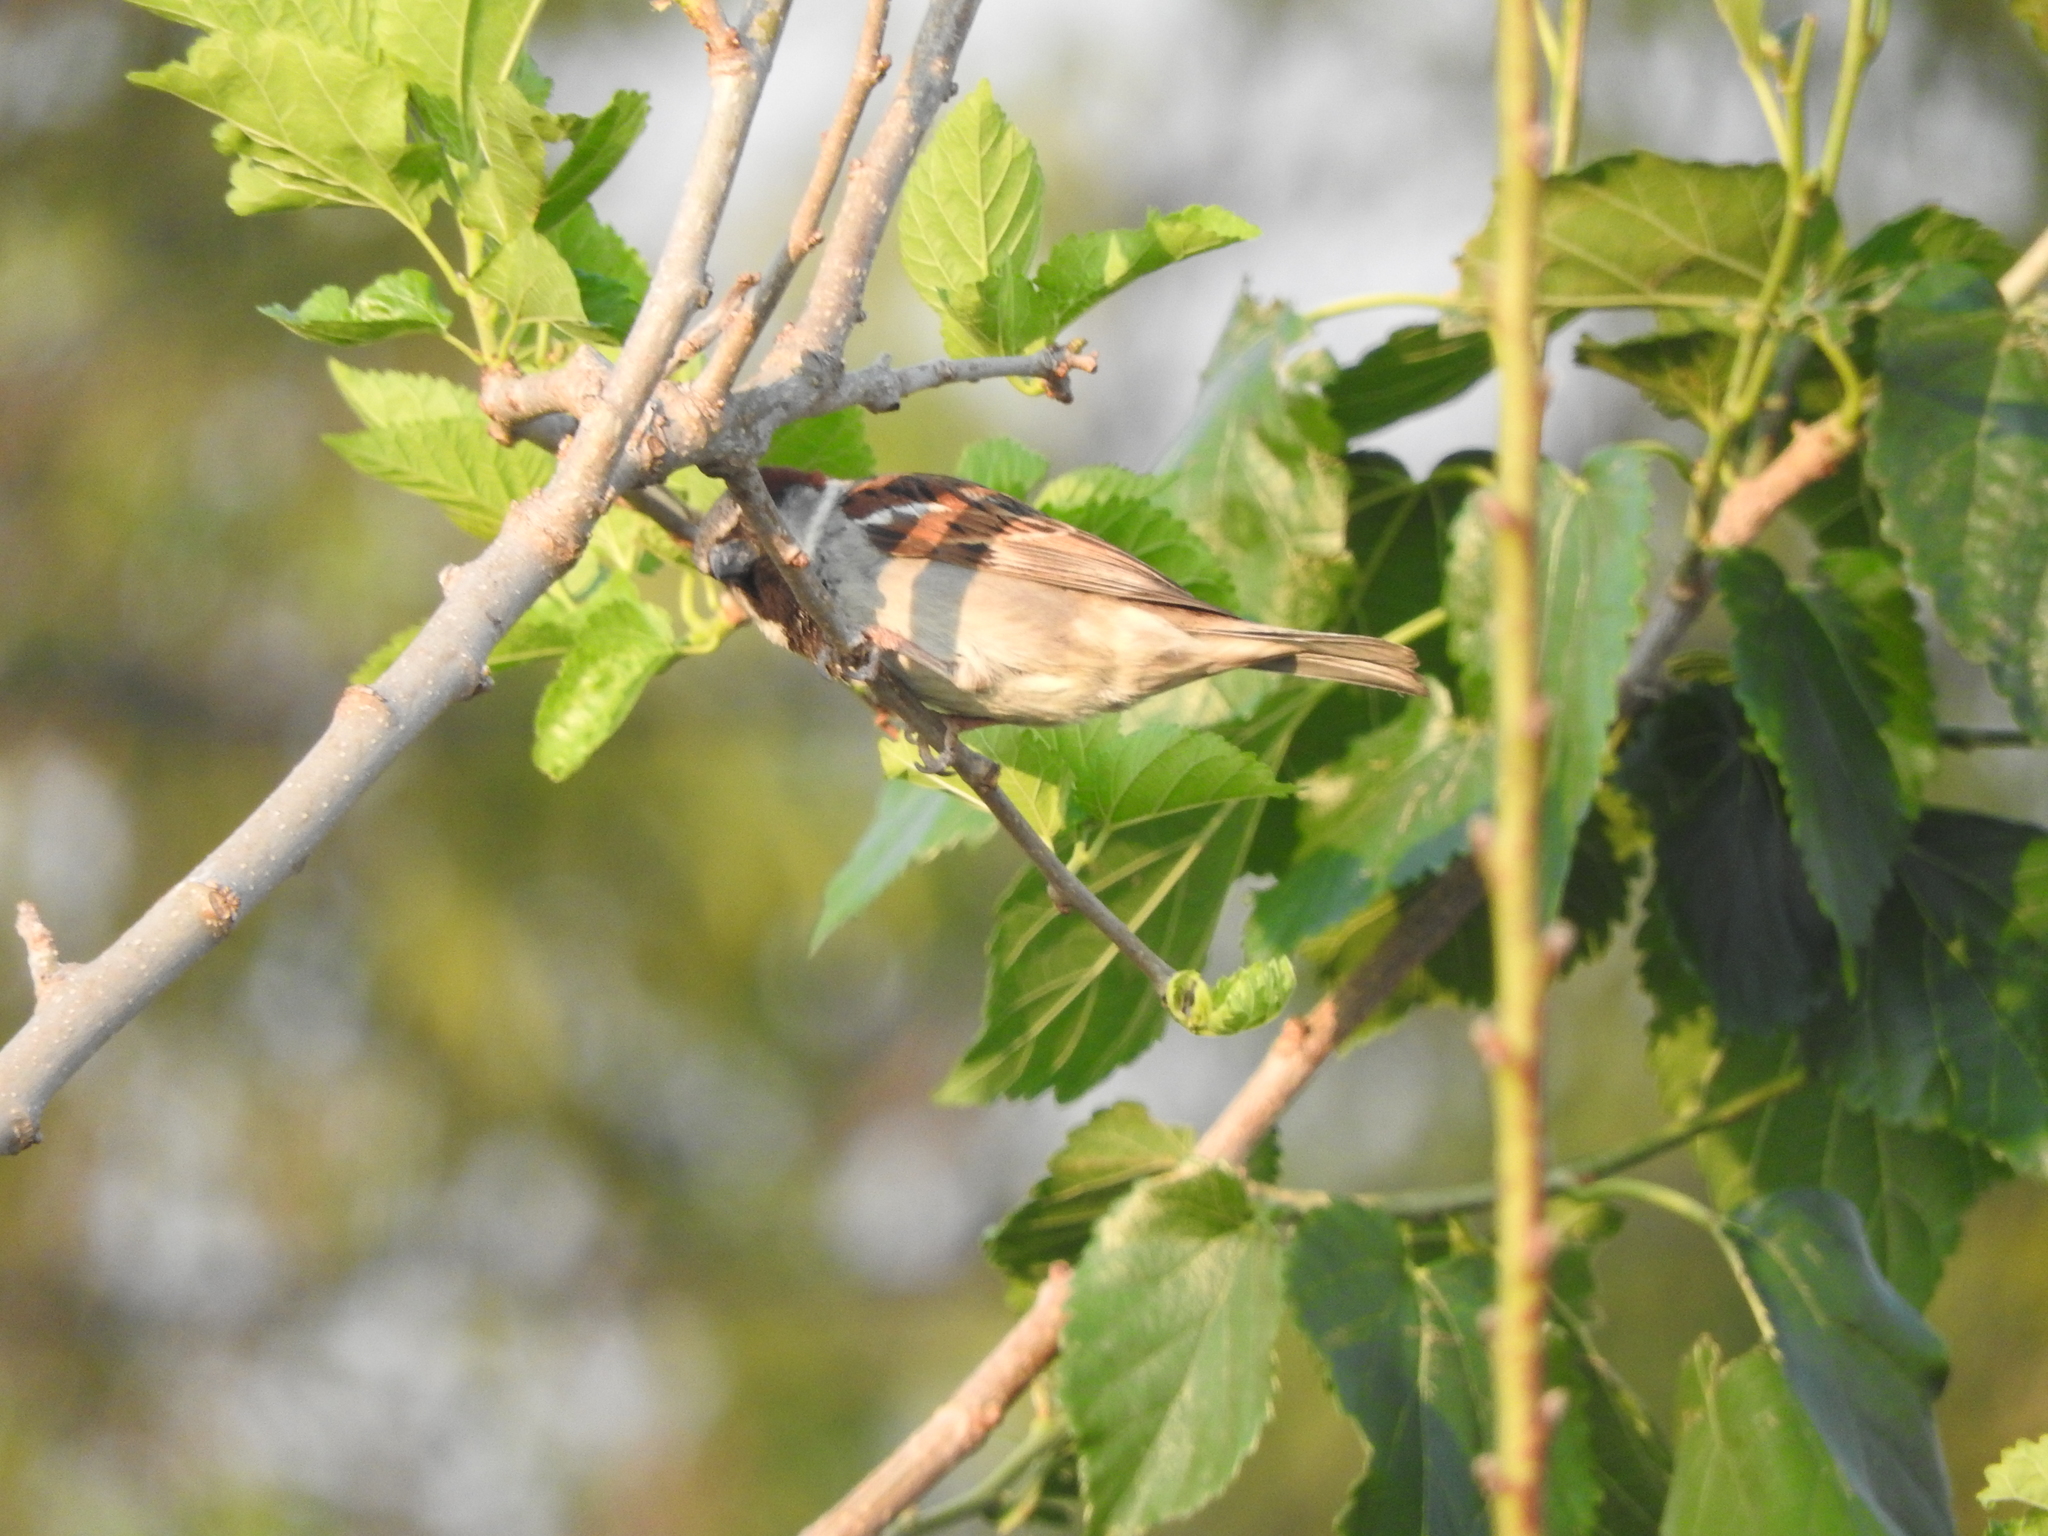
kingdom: Animalia
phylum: Chordata
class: Aves
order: Passeriformes
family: Passeridae
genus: Passer
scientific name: Passer domesticus
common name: House sparrow
